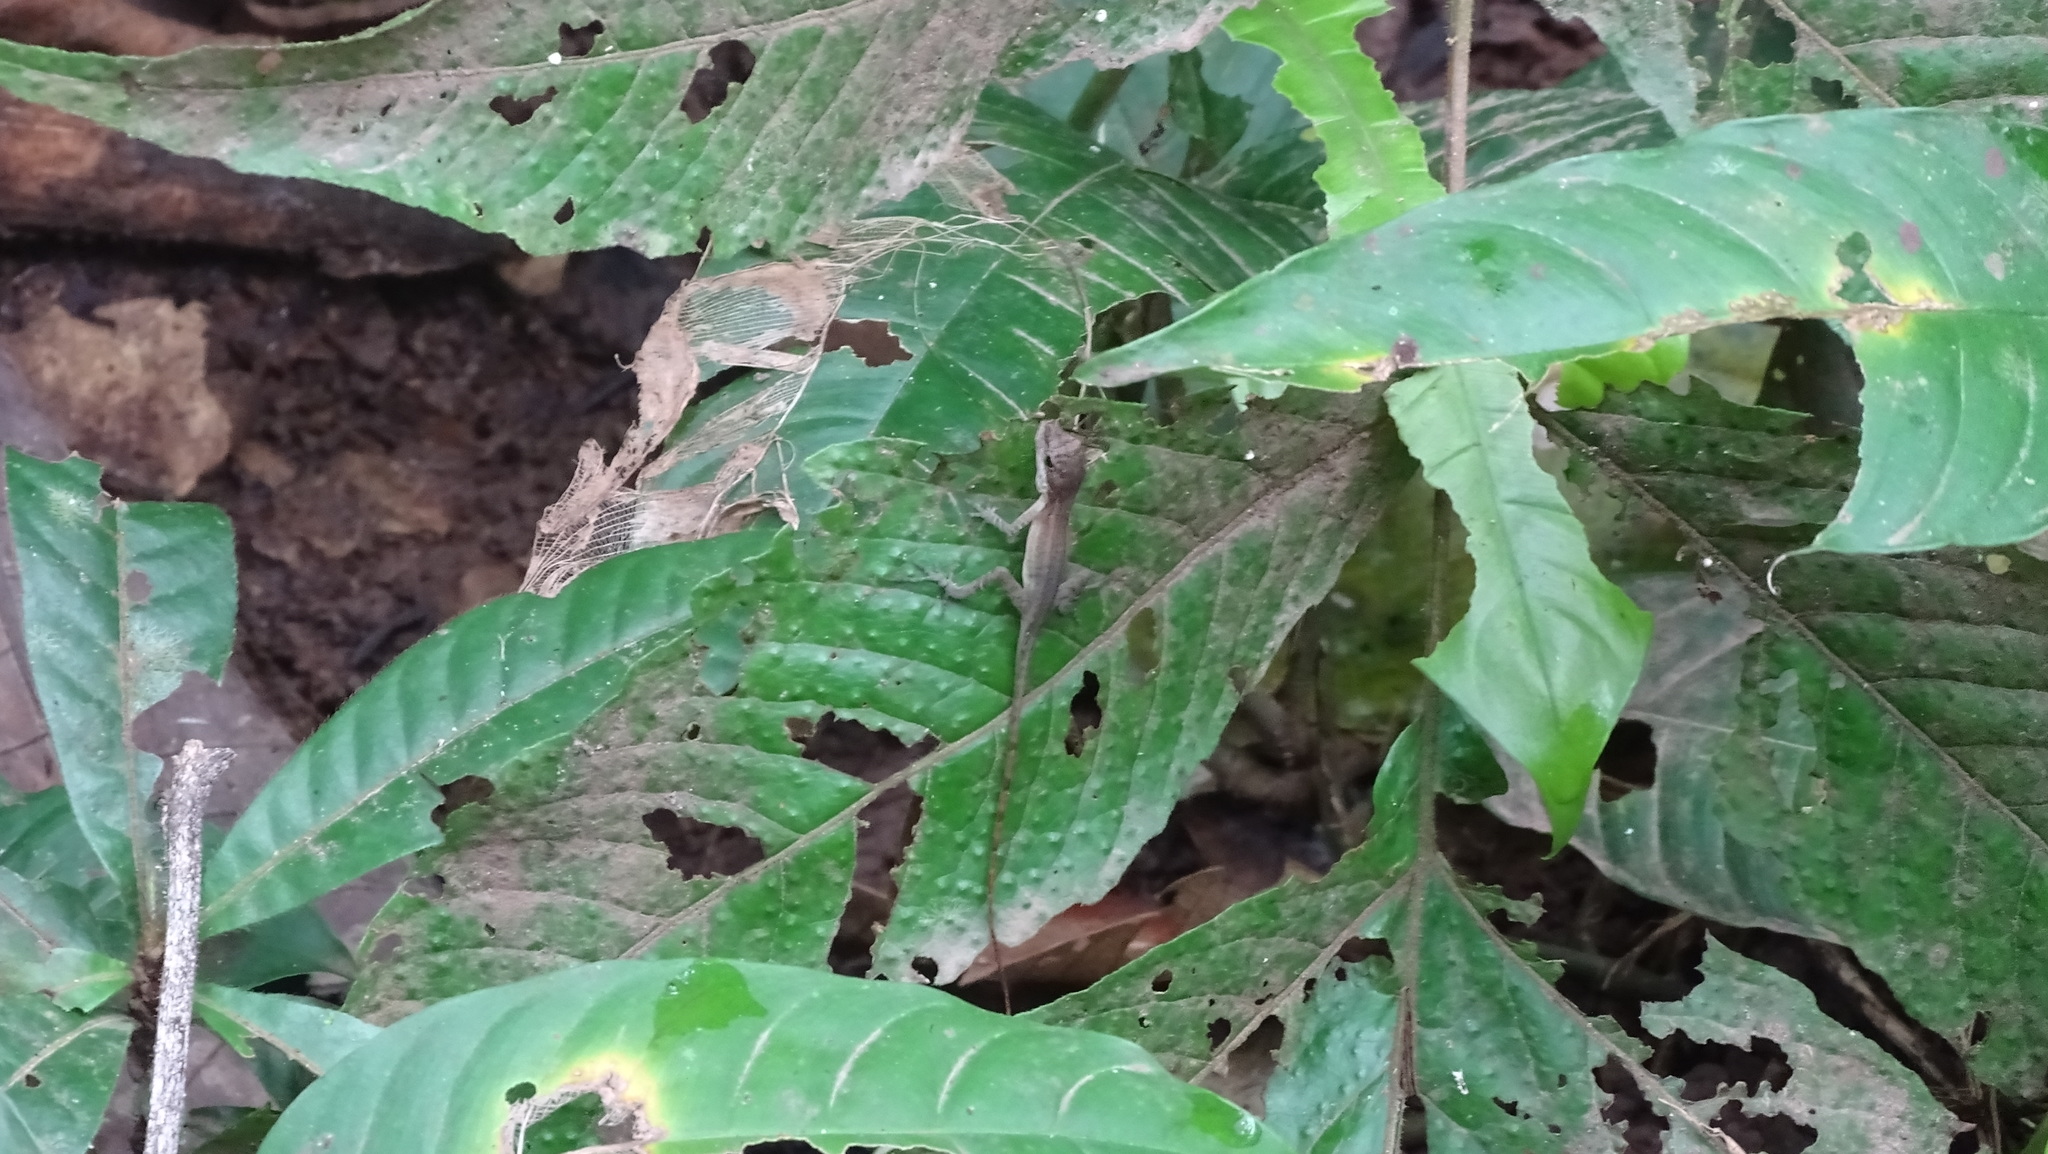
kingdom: Animalia
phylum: Chordata
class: Squamata
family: Dactyloidae
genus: Anolis
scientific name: Anolis apletophallus
